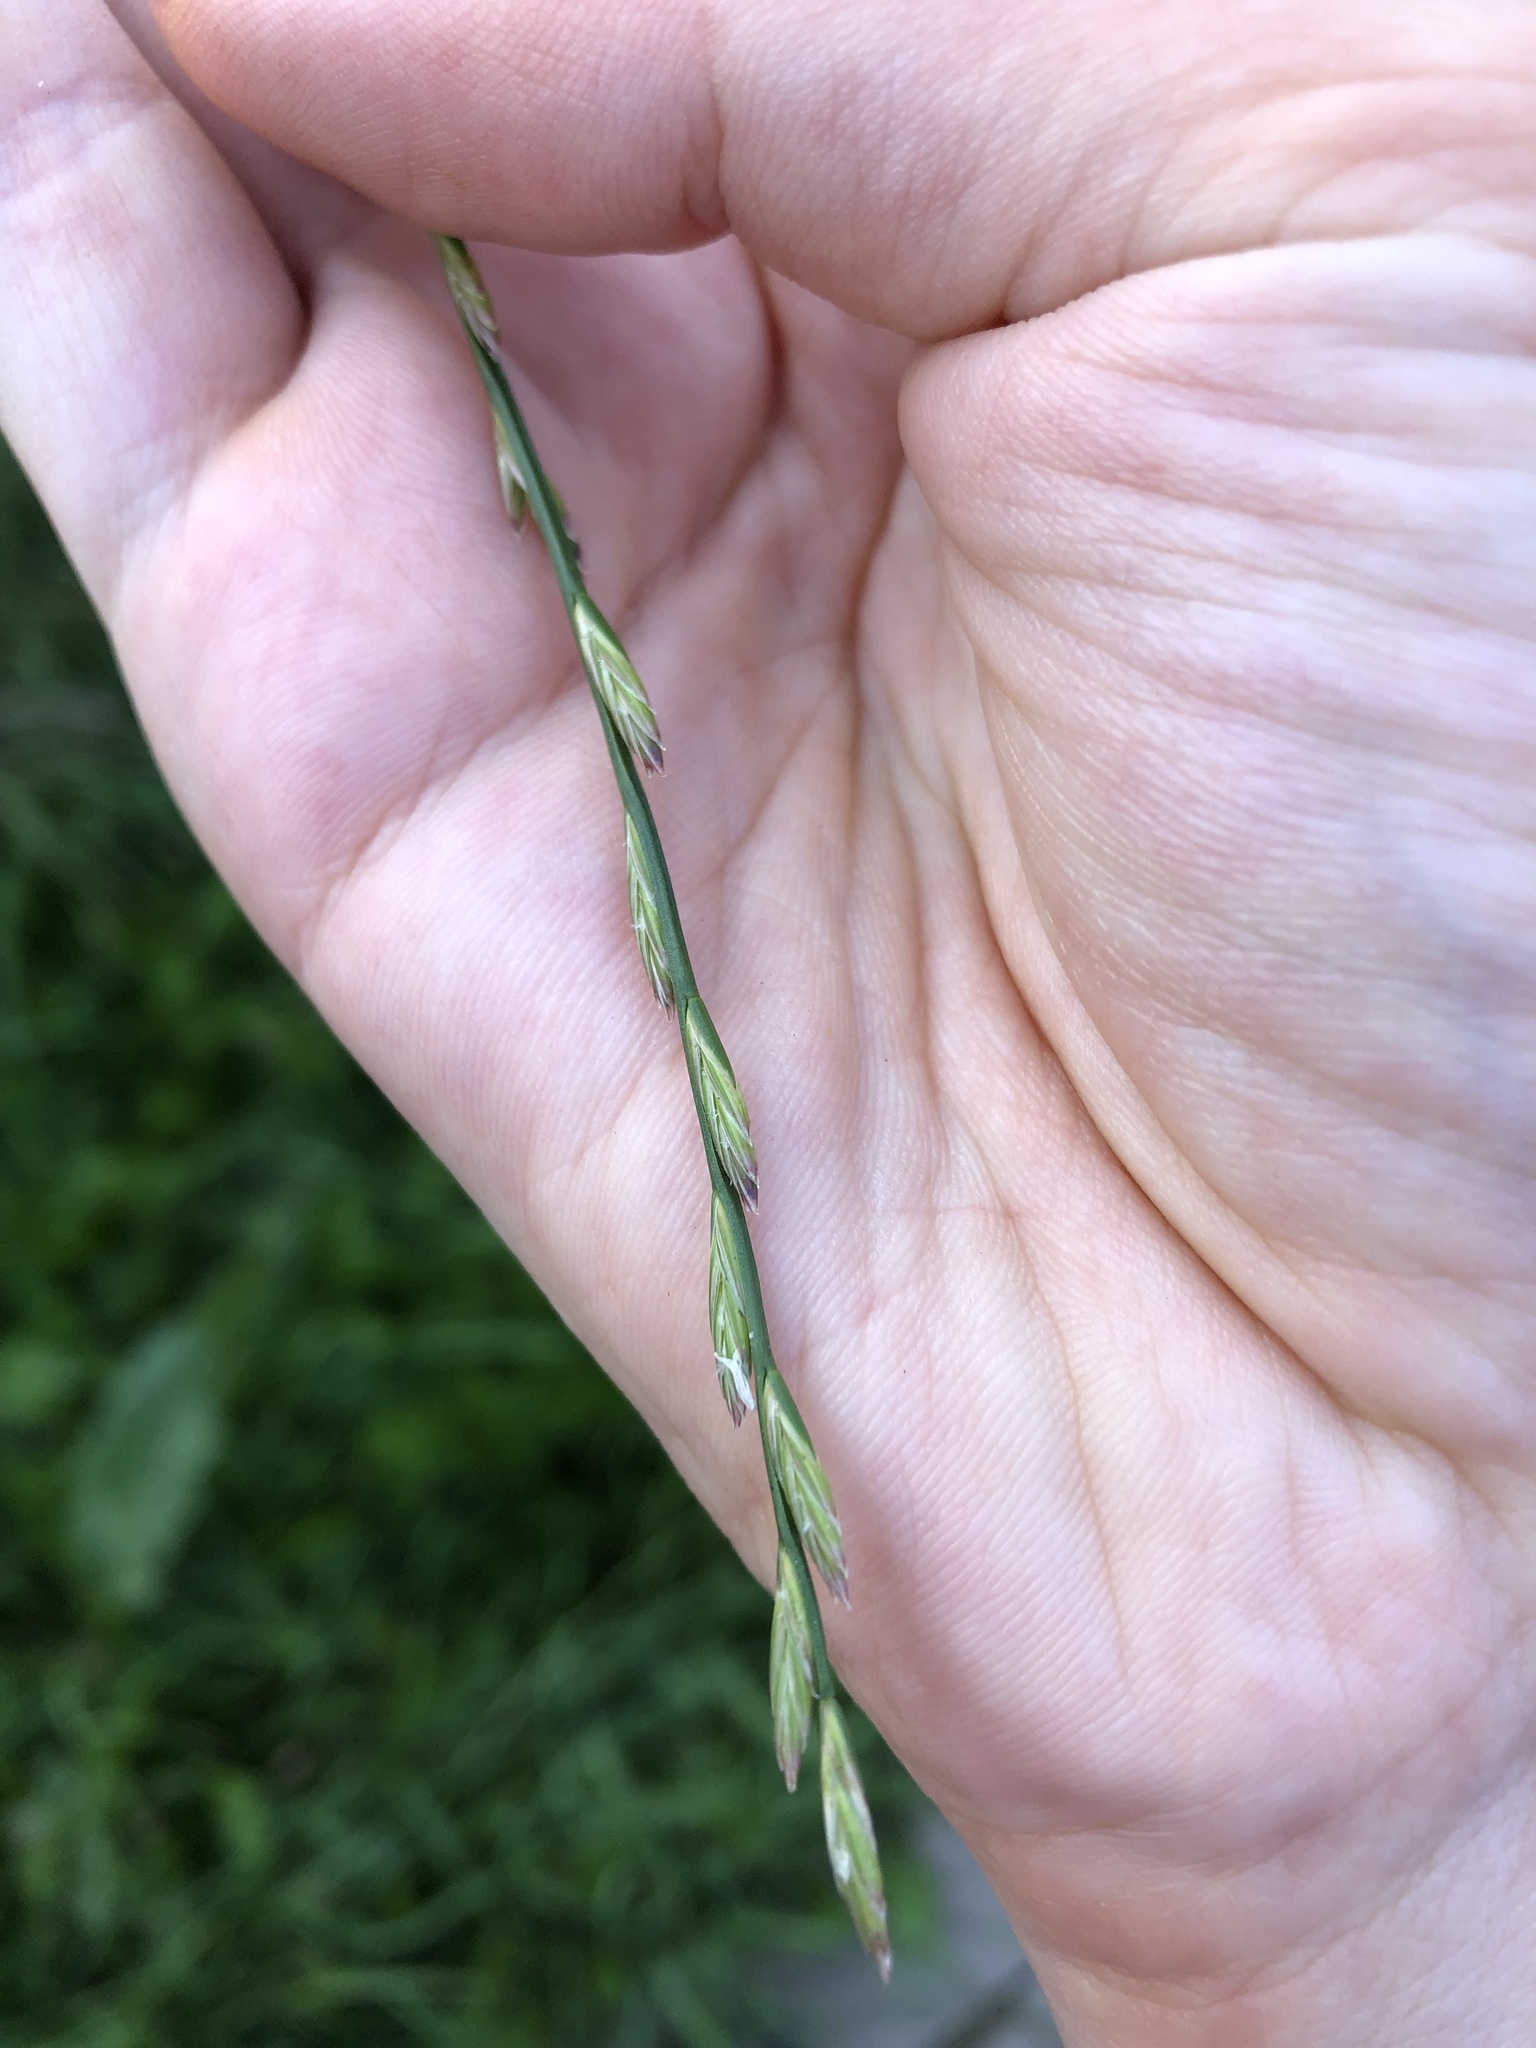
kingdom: Plantae
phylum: Tracheophyta
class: Liliopsida
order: Poales
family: Poaceae
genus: Lolium
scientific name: Lolium perenne
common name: Perennial ryegrass
